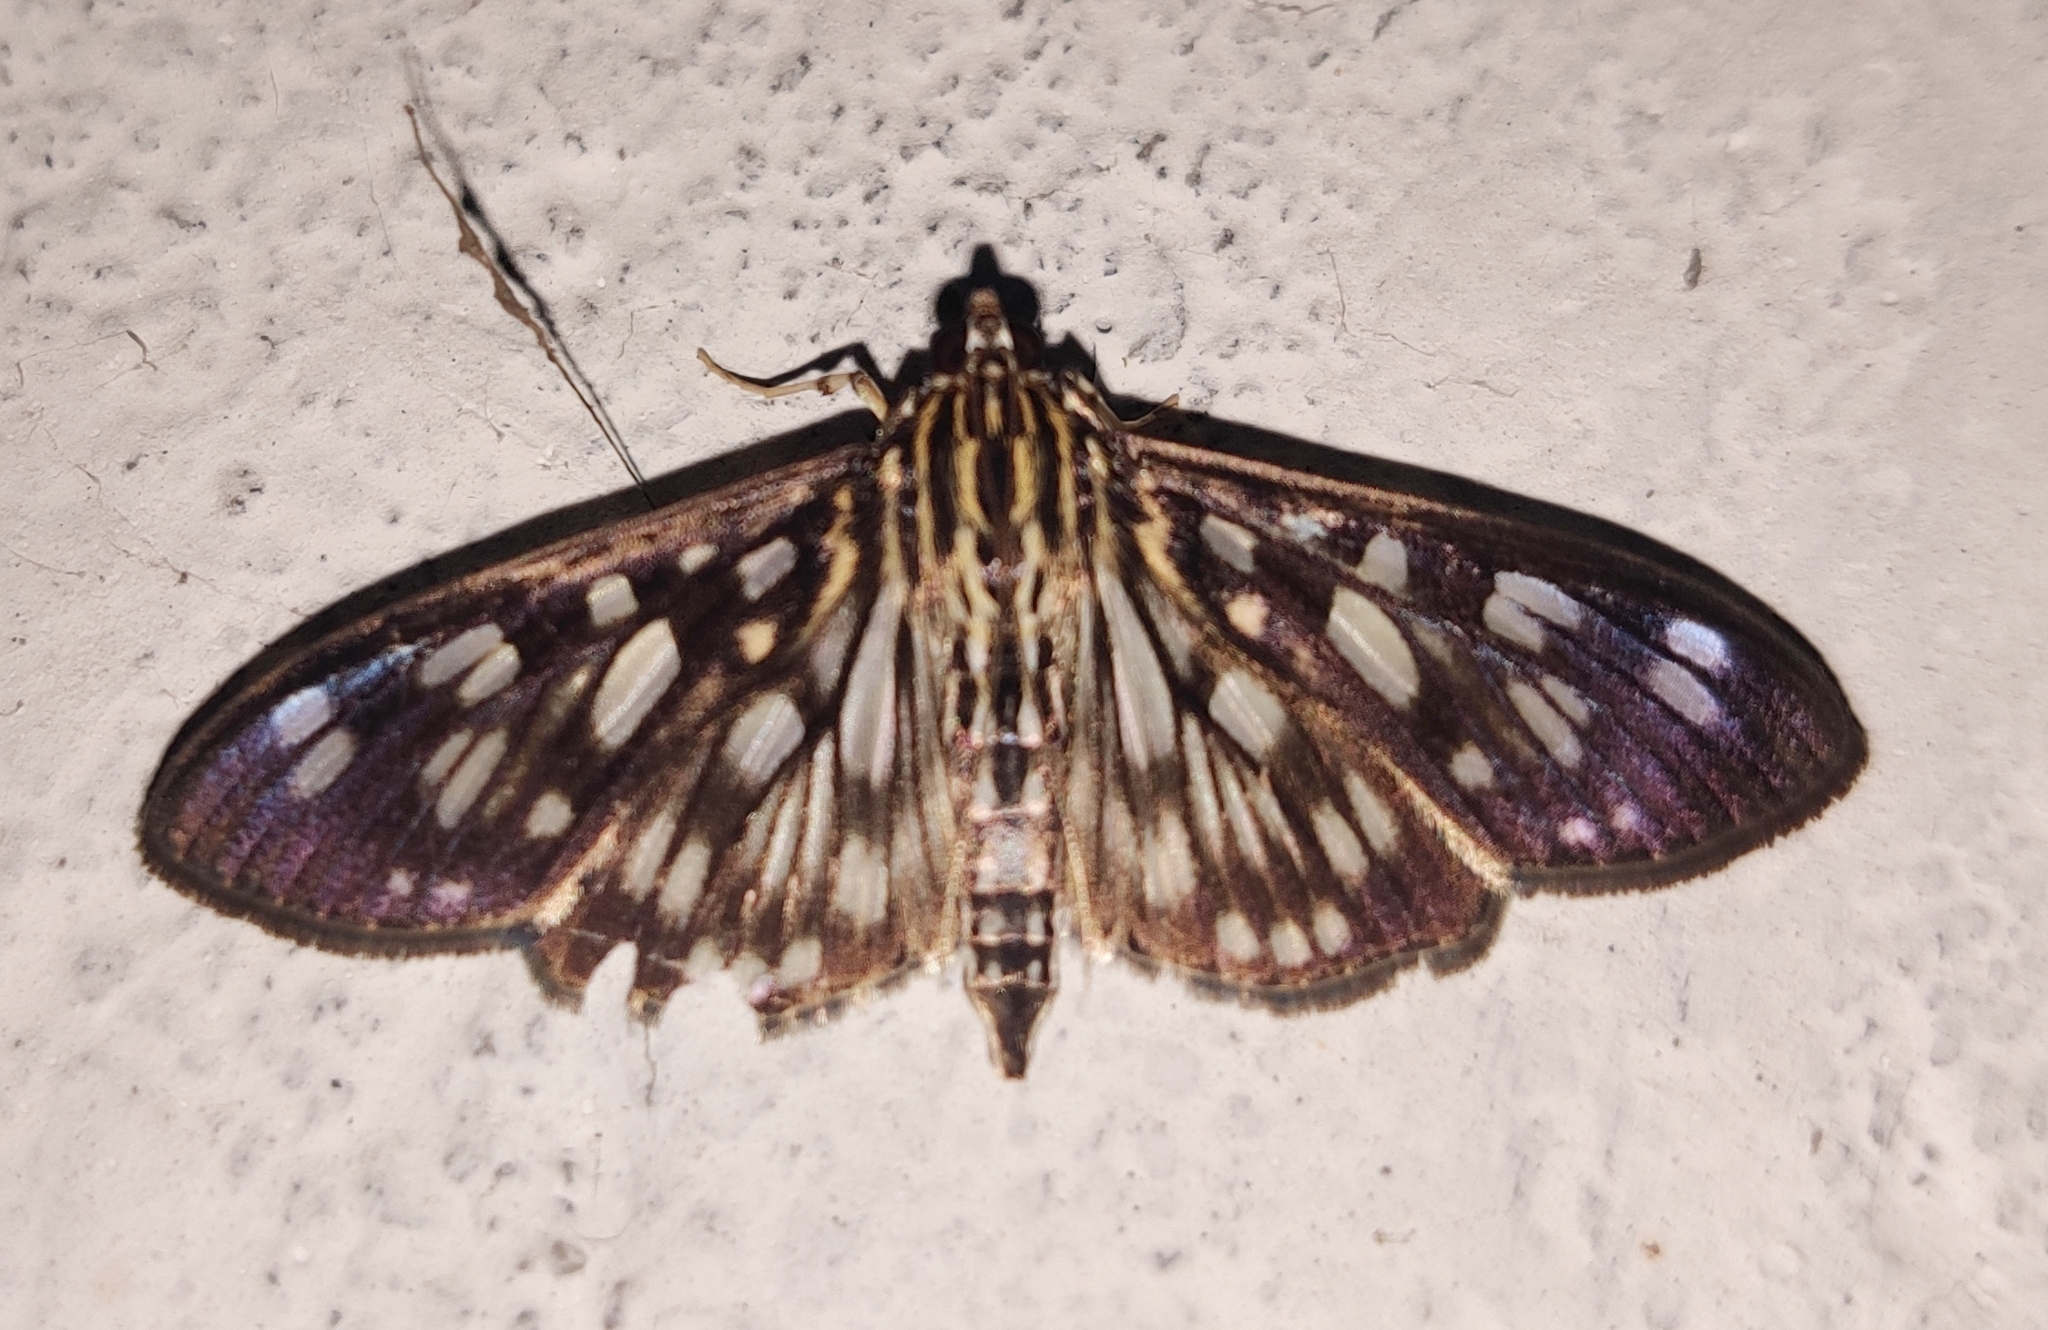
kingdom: Animalia
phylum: Arthropoda
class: Insecta
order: Lepidoptera
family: Crambidae
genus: Pygospila
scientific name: Pygospila tyres
